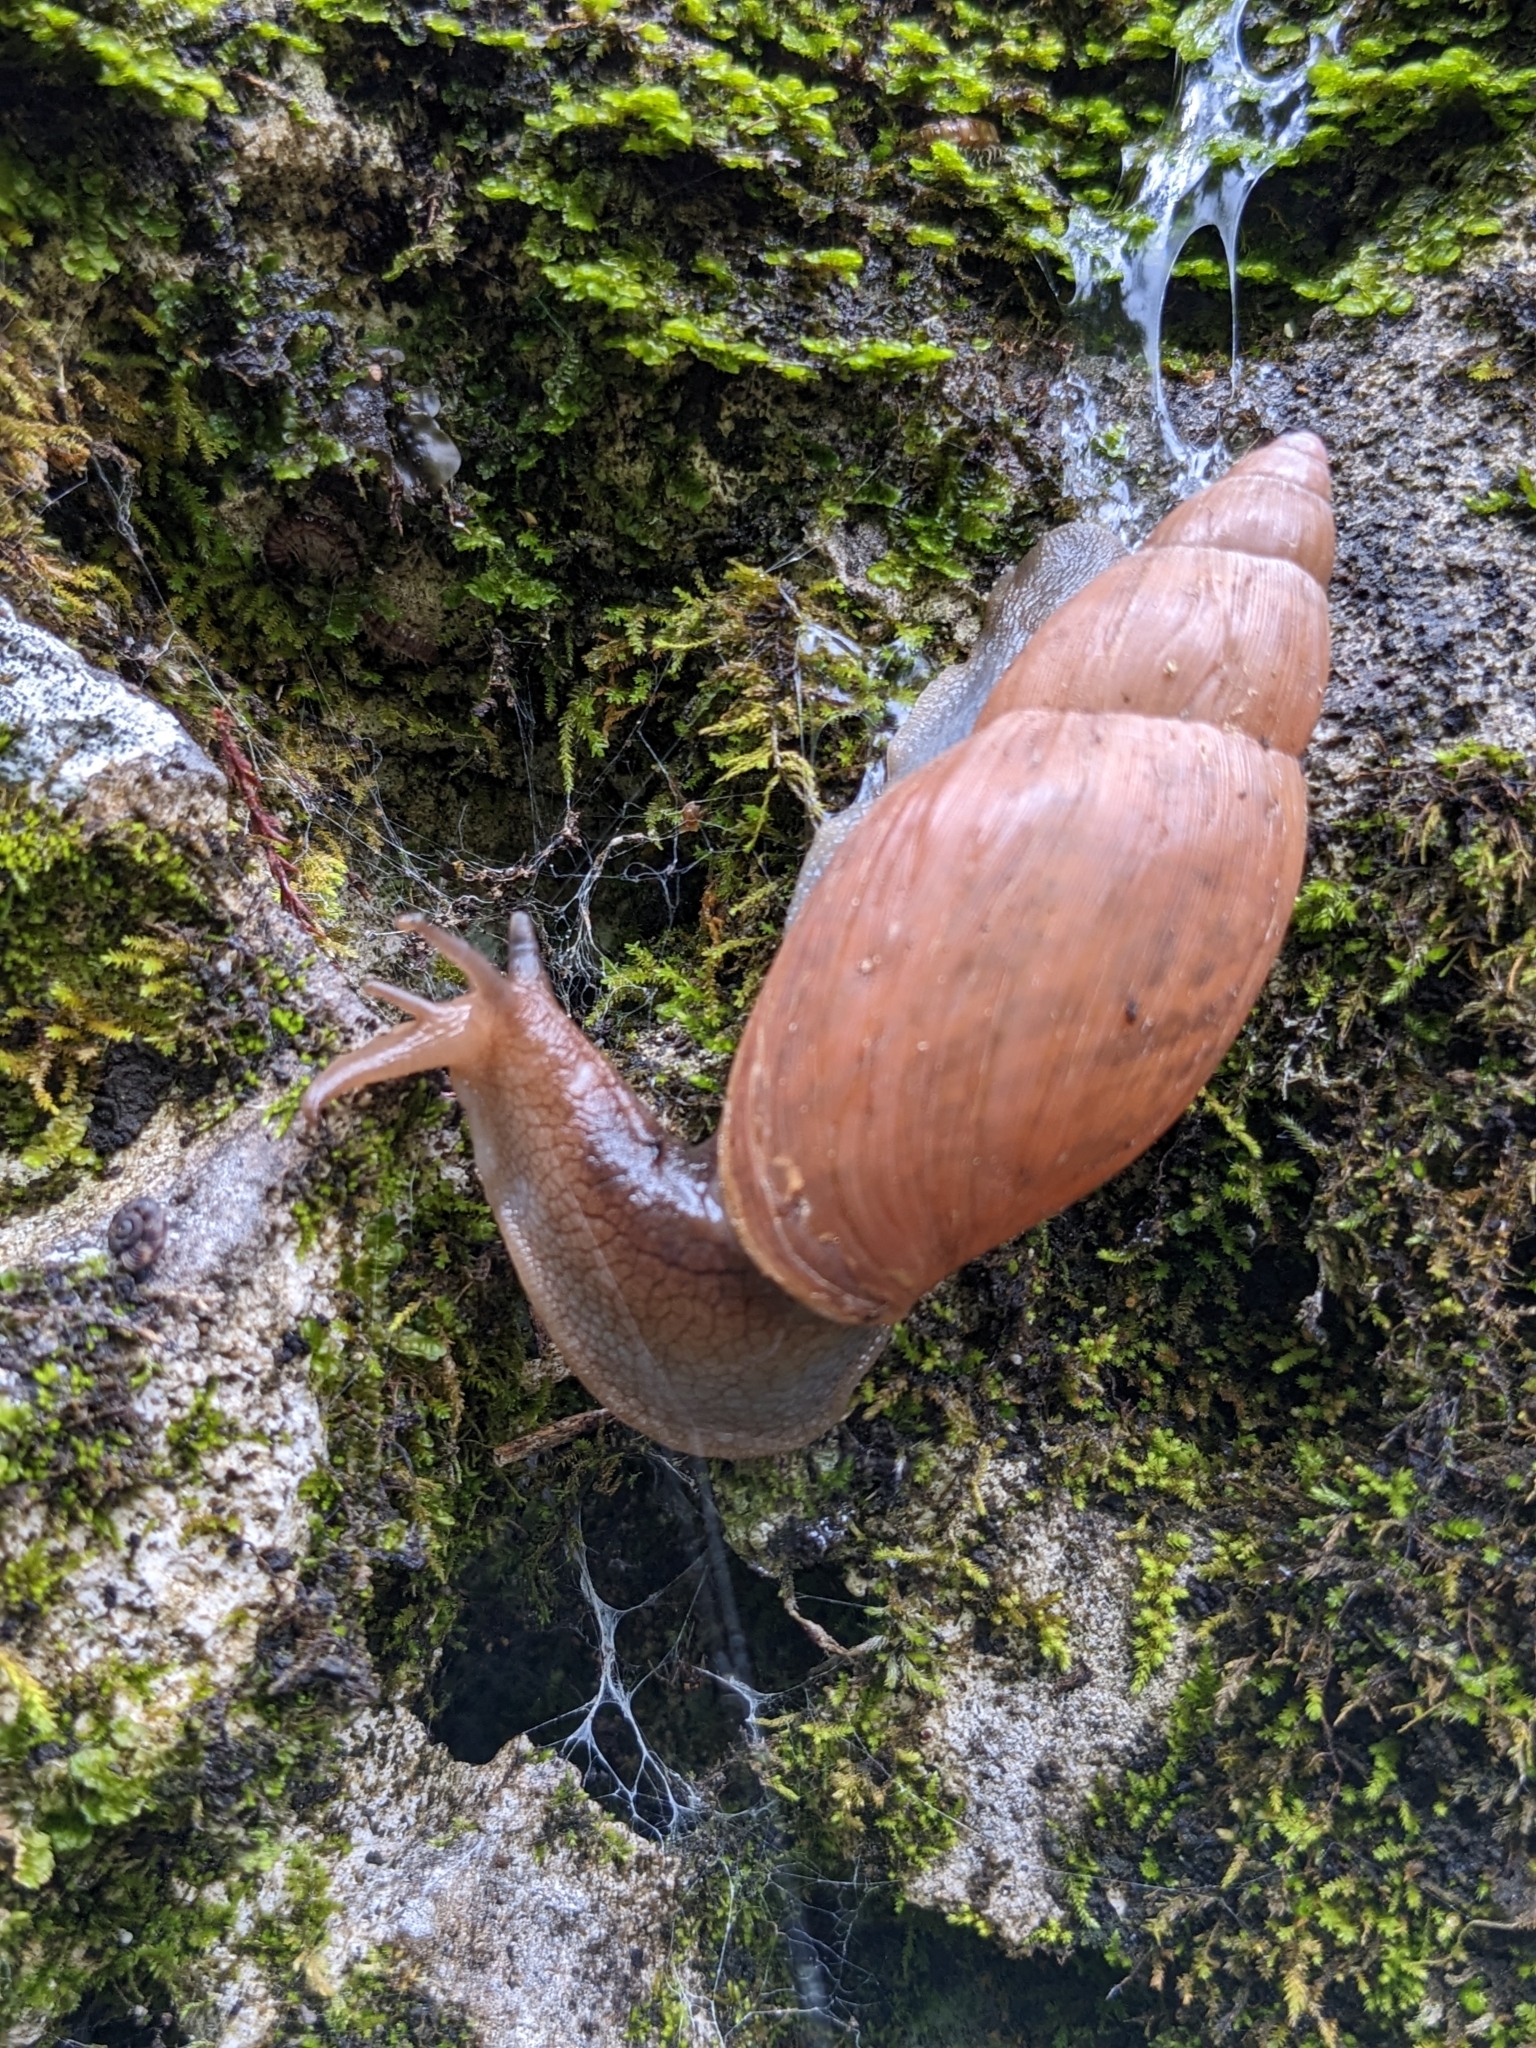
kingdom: Animalia
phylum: Mollusca
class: Gastropoda
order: Stylommatophora
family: Spiraxidae
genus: Euglandina
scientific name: Euglandina rosea
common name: Rosy wolfsnail
